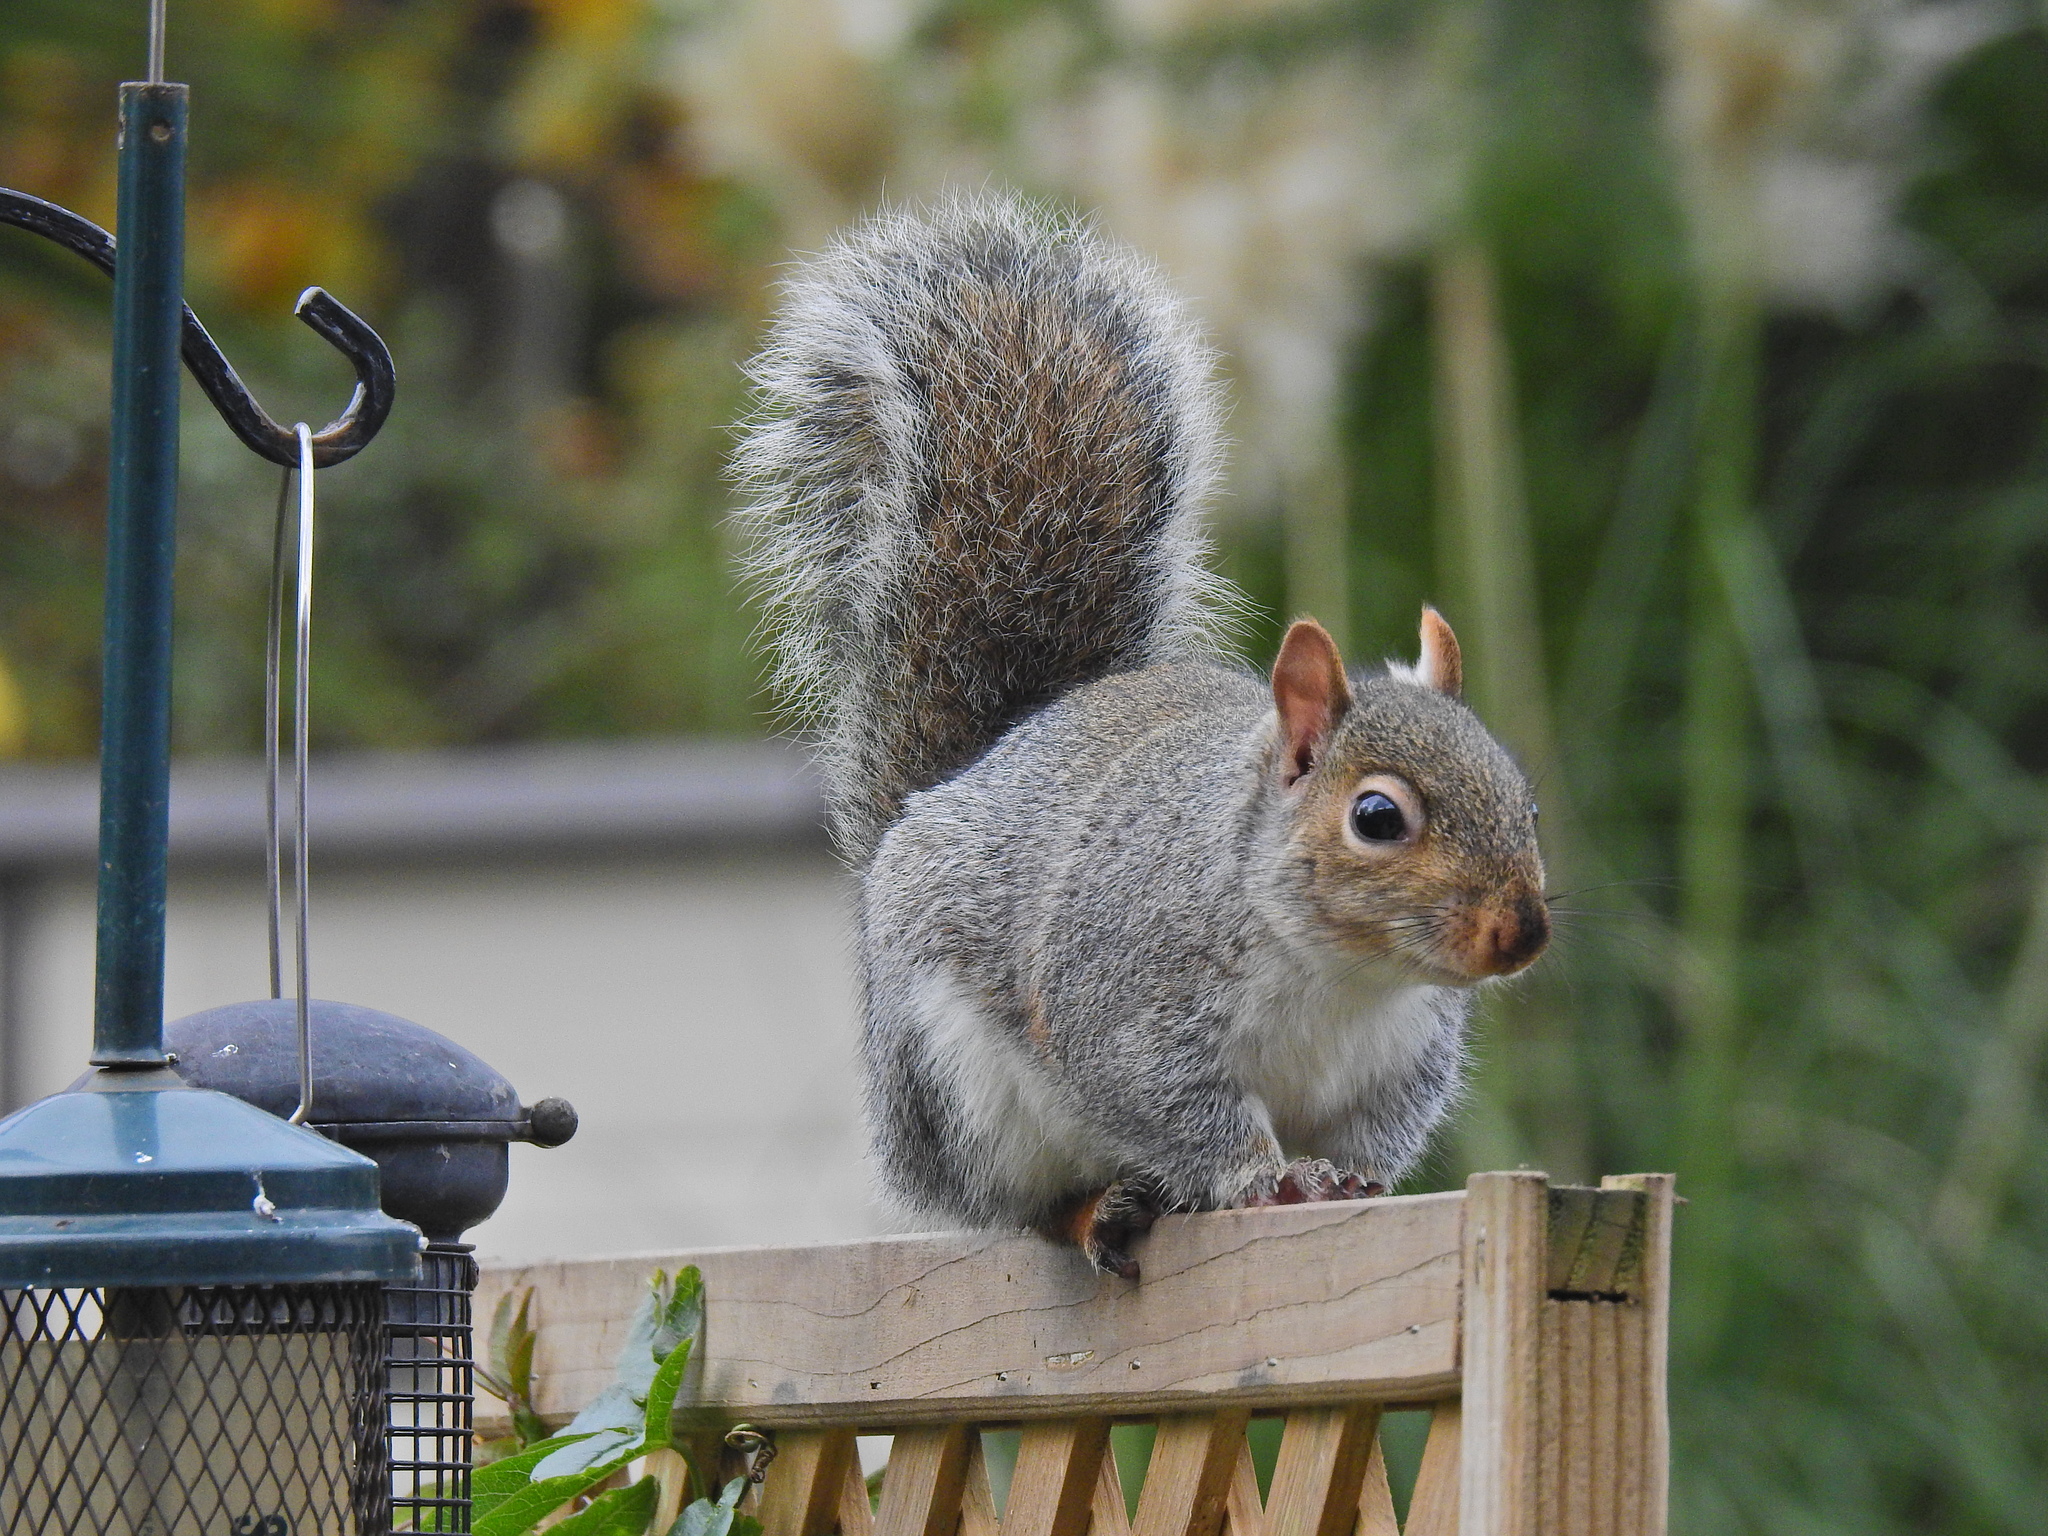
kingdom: Animalia
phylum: Chordata
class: Mammalia
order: Rodentia
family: Sciuridae
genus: Sciurus
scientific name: Sciurus carolinensis
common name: Eastern gray squirrel
